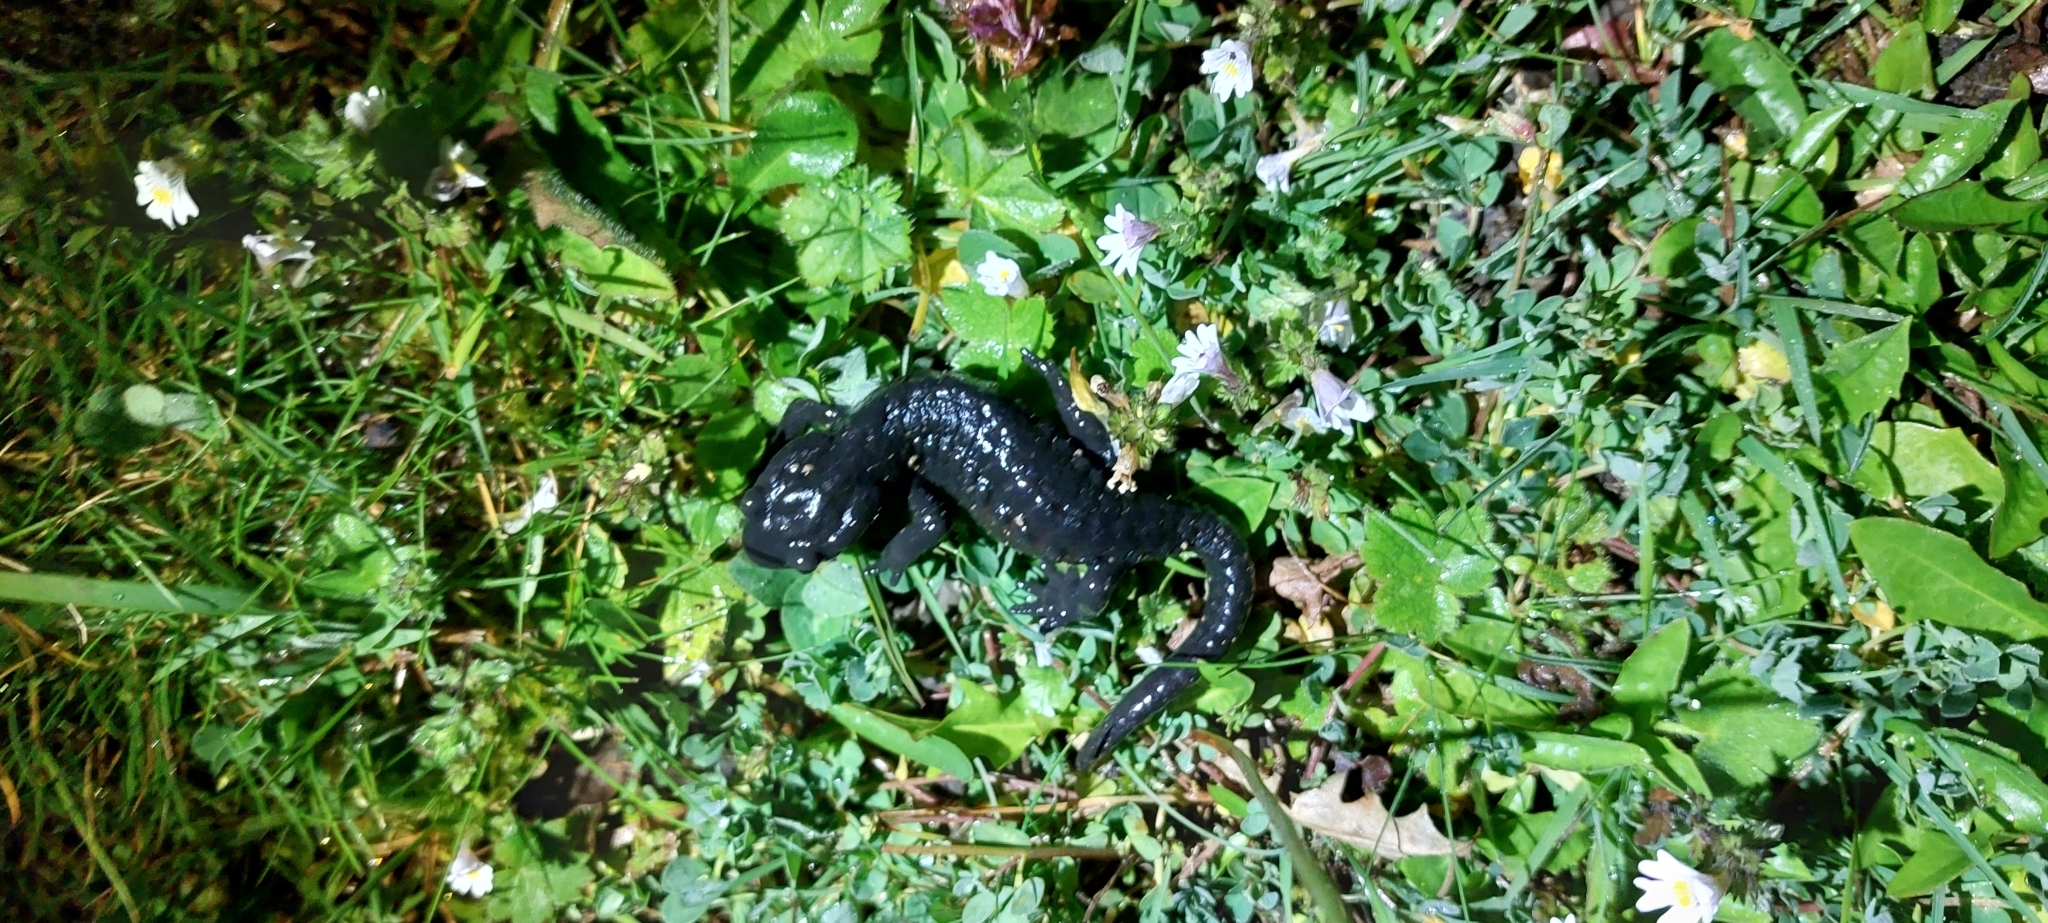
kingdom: Animalia
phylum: Chordata
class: Amphibia
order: Caudata
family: Salamandridae
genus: Salamandra
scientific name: Salamandra atra
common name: Alpine salamander
